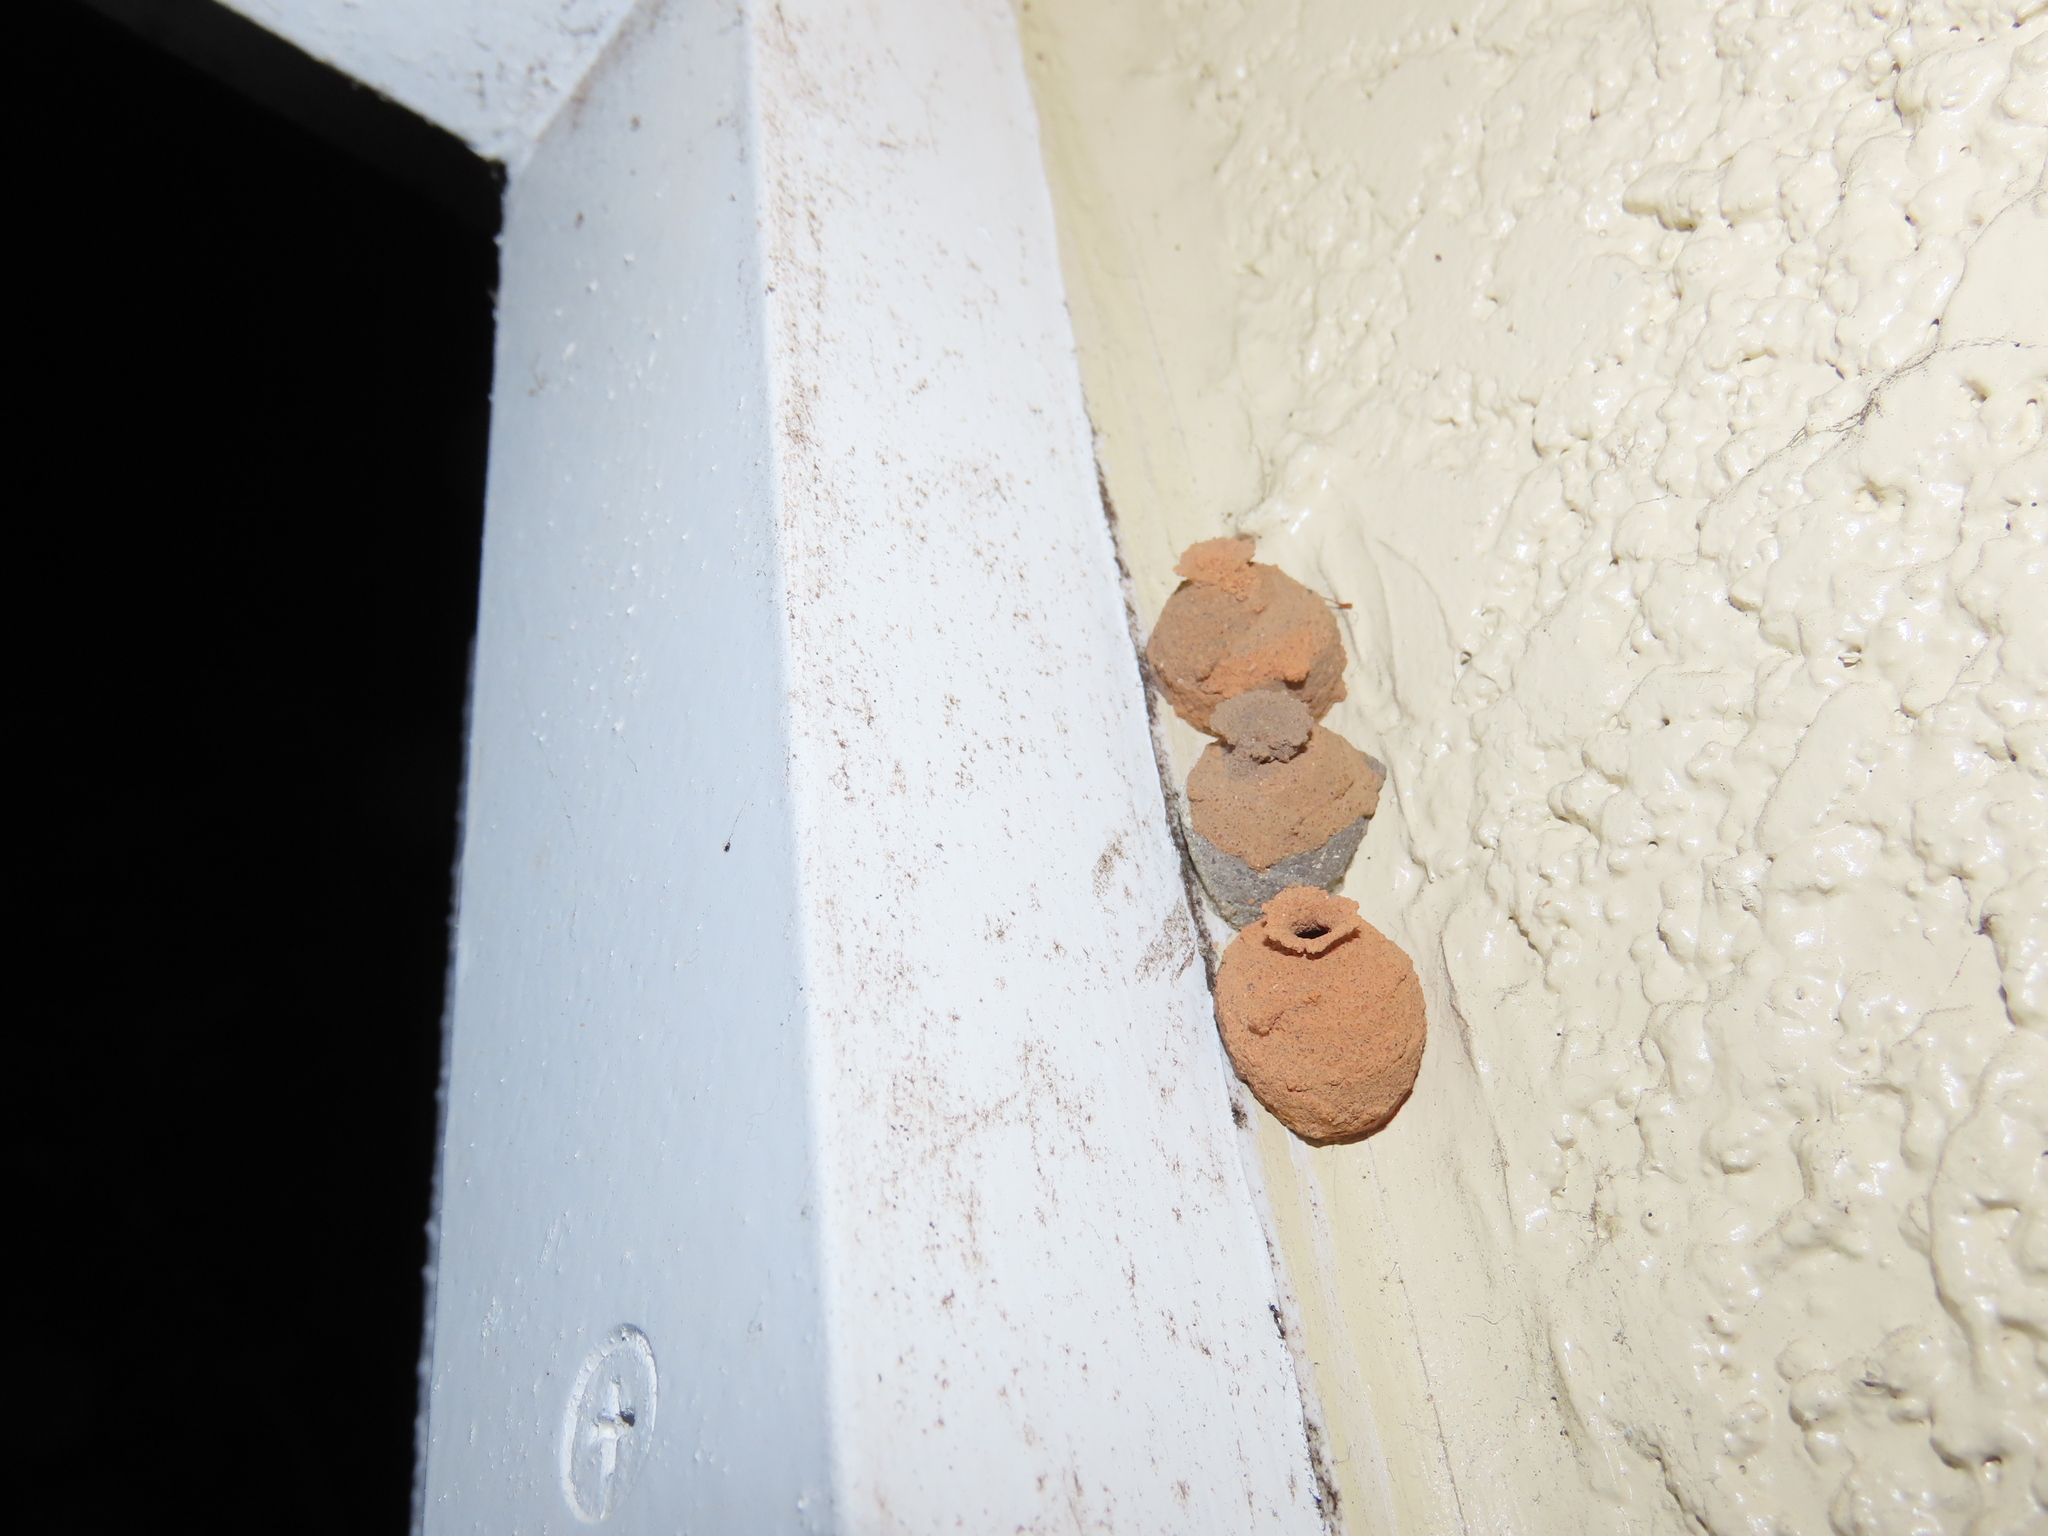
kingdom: Animalia
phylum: Arthropoda
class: Insecta
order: Hymenoptera
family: Eumenidae
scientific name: Eumenidae
